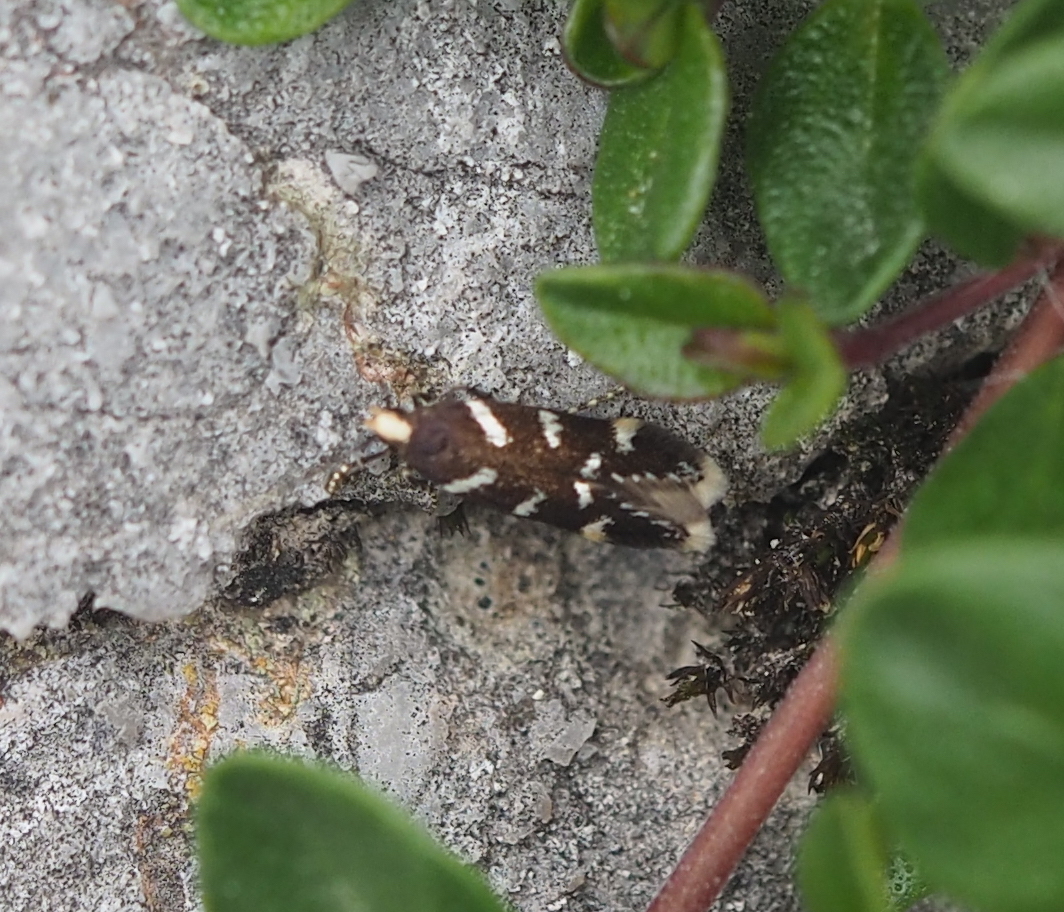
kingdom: Animalia
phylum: Arthropoda
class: Insecta
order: Lepidoptera
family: Gelechiidae
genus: Oxypteryx
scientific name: Oxypteryx libertinella
